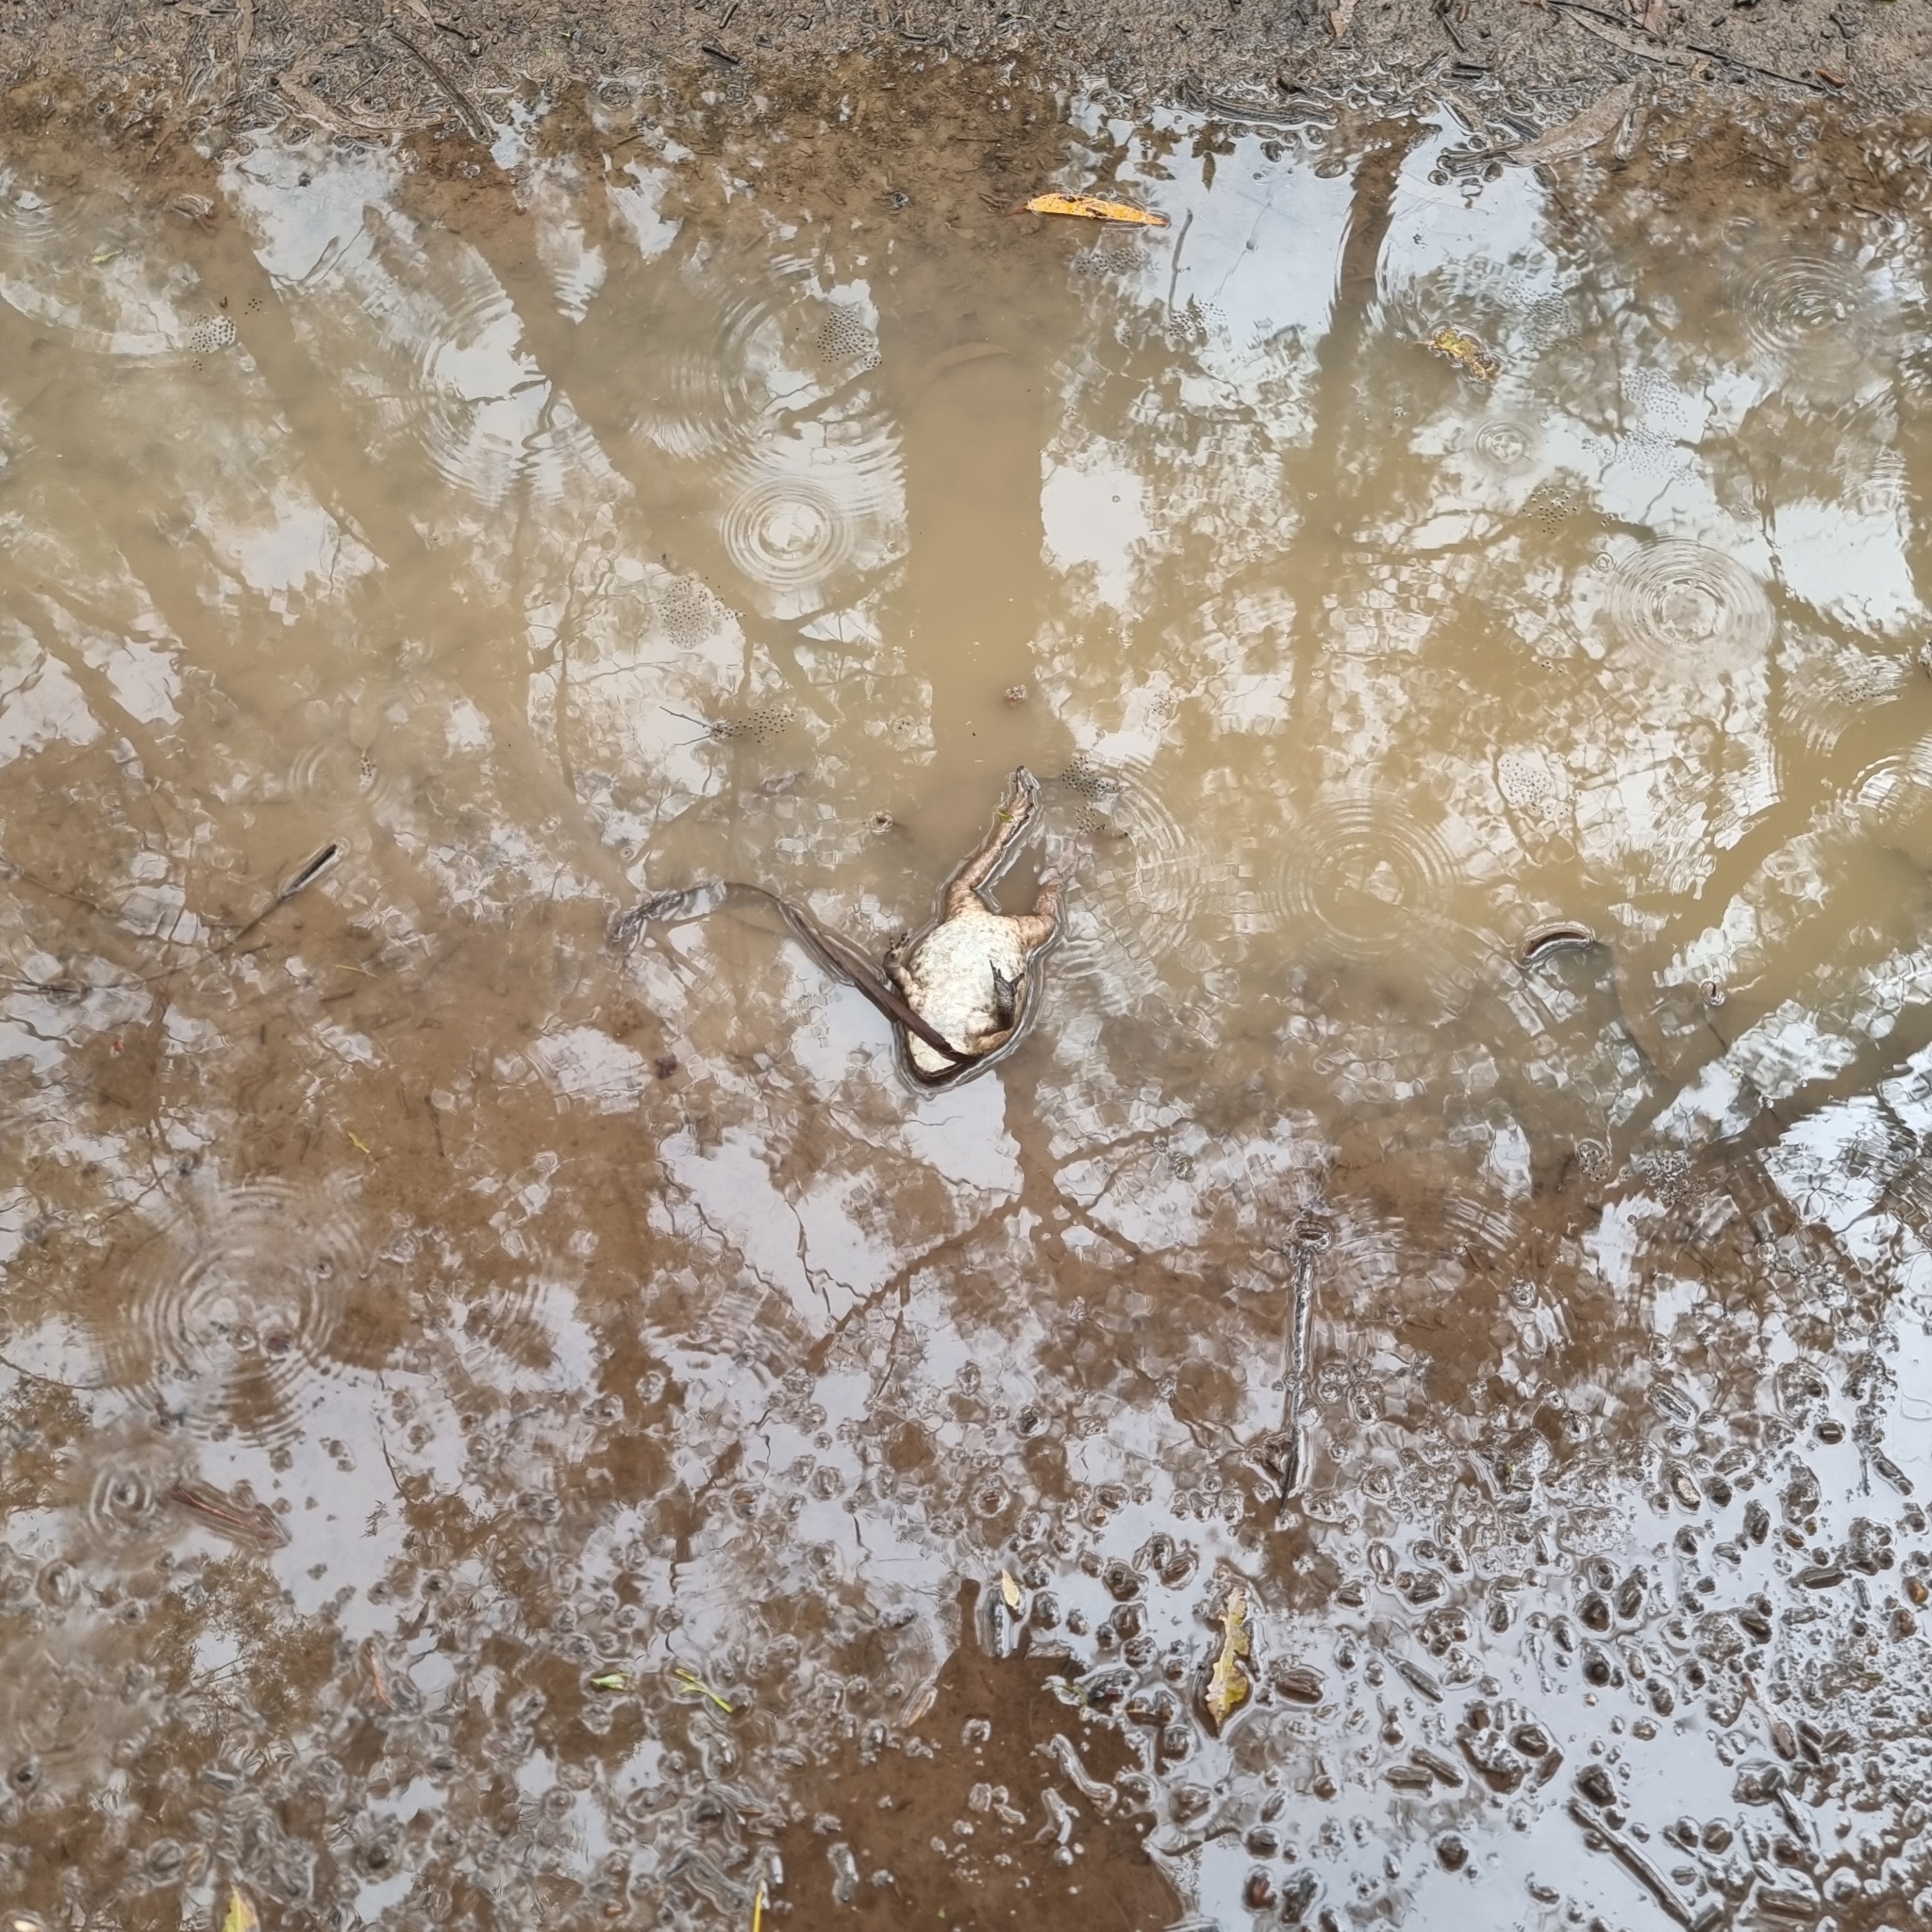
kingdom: Animalia
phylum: Chordata
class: Amphibia
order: Anura
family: Bufonidae
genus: Rhinella
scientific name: Rhinella marina
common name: Cane toad
